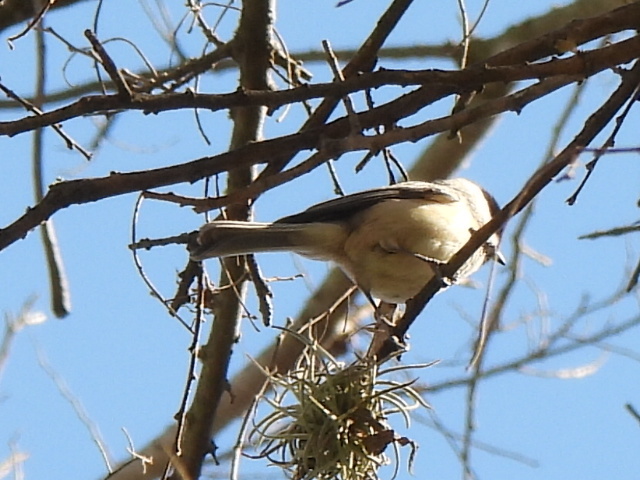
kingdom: Animalia
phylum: Chordata
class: Aves
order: Passeriformes
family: Paridae
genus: Poecile
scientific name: Poecile carolinensis
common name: Carolina chickadee
